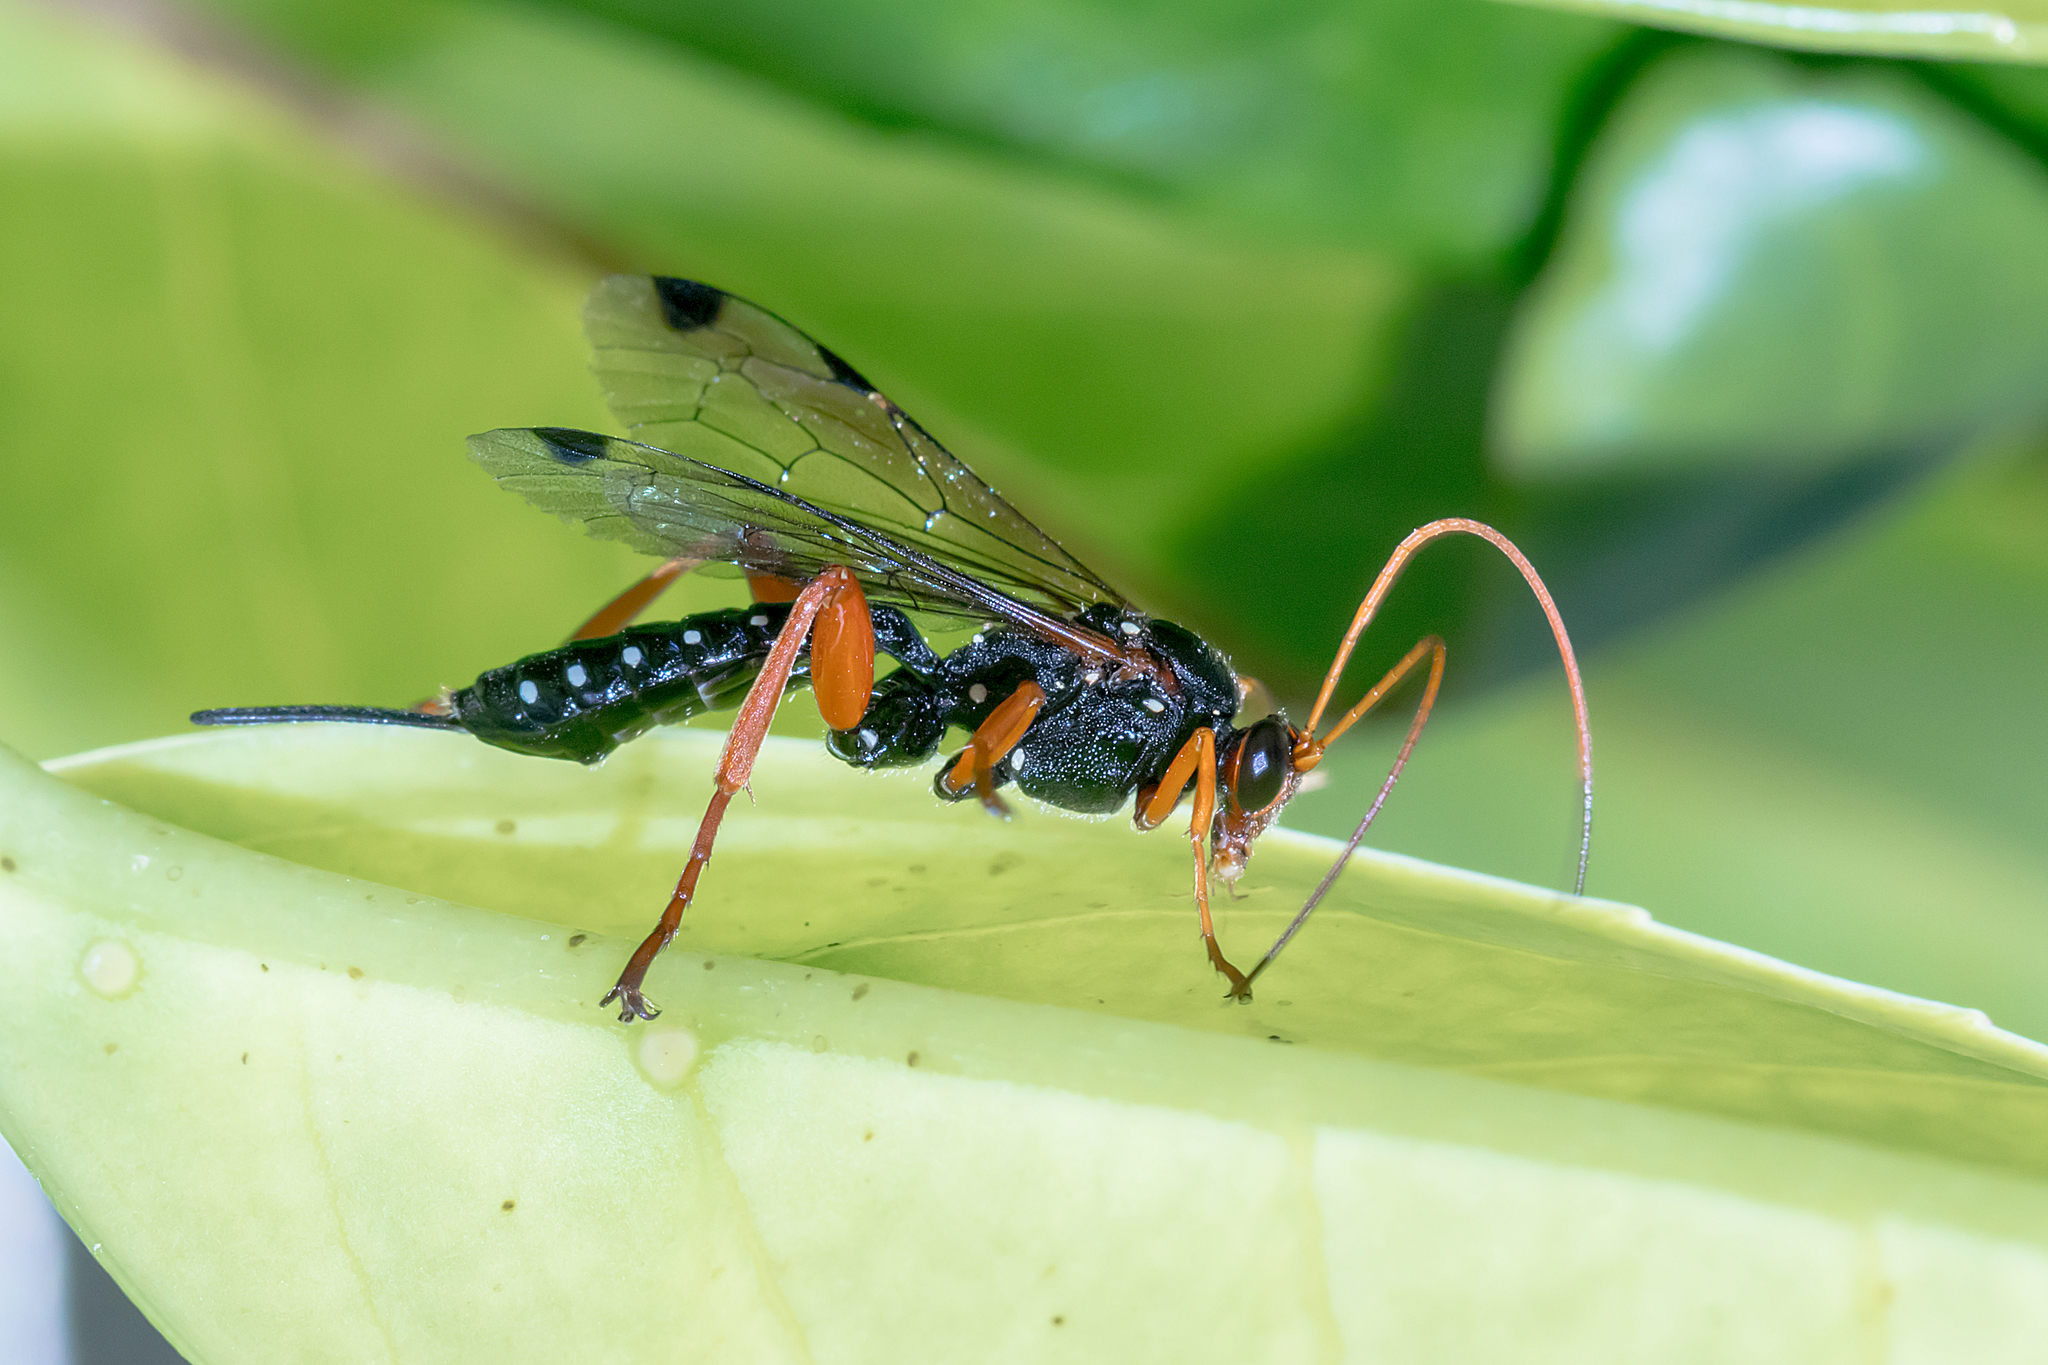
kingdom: Animalia
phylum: Arthropoda
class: Insecta
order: Hymenoptera
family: Ichneumonidae
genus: Echthromorpha
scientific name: Echthromorpha intricatoria
